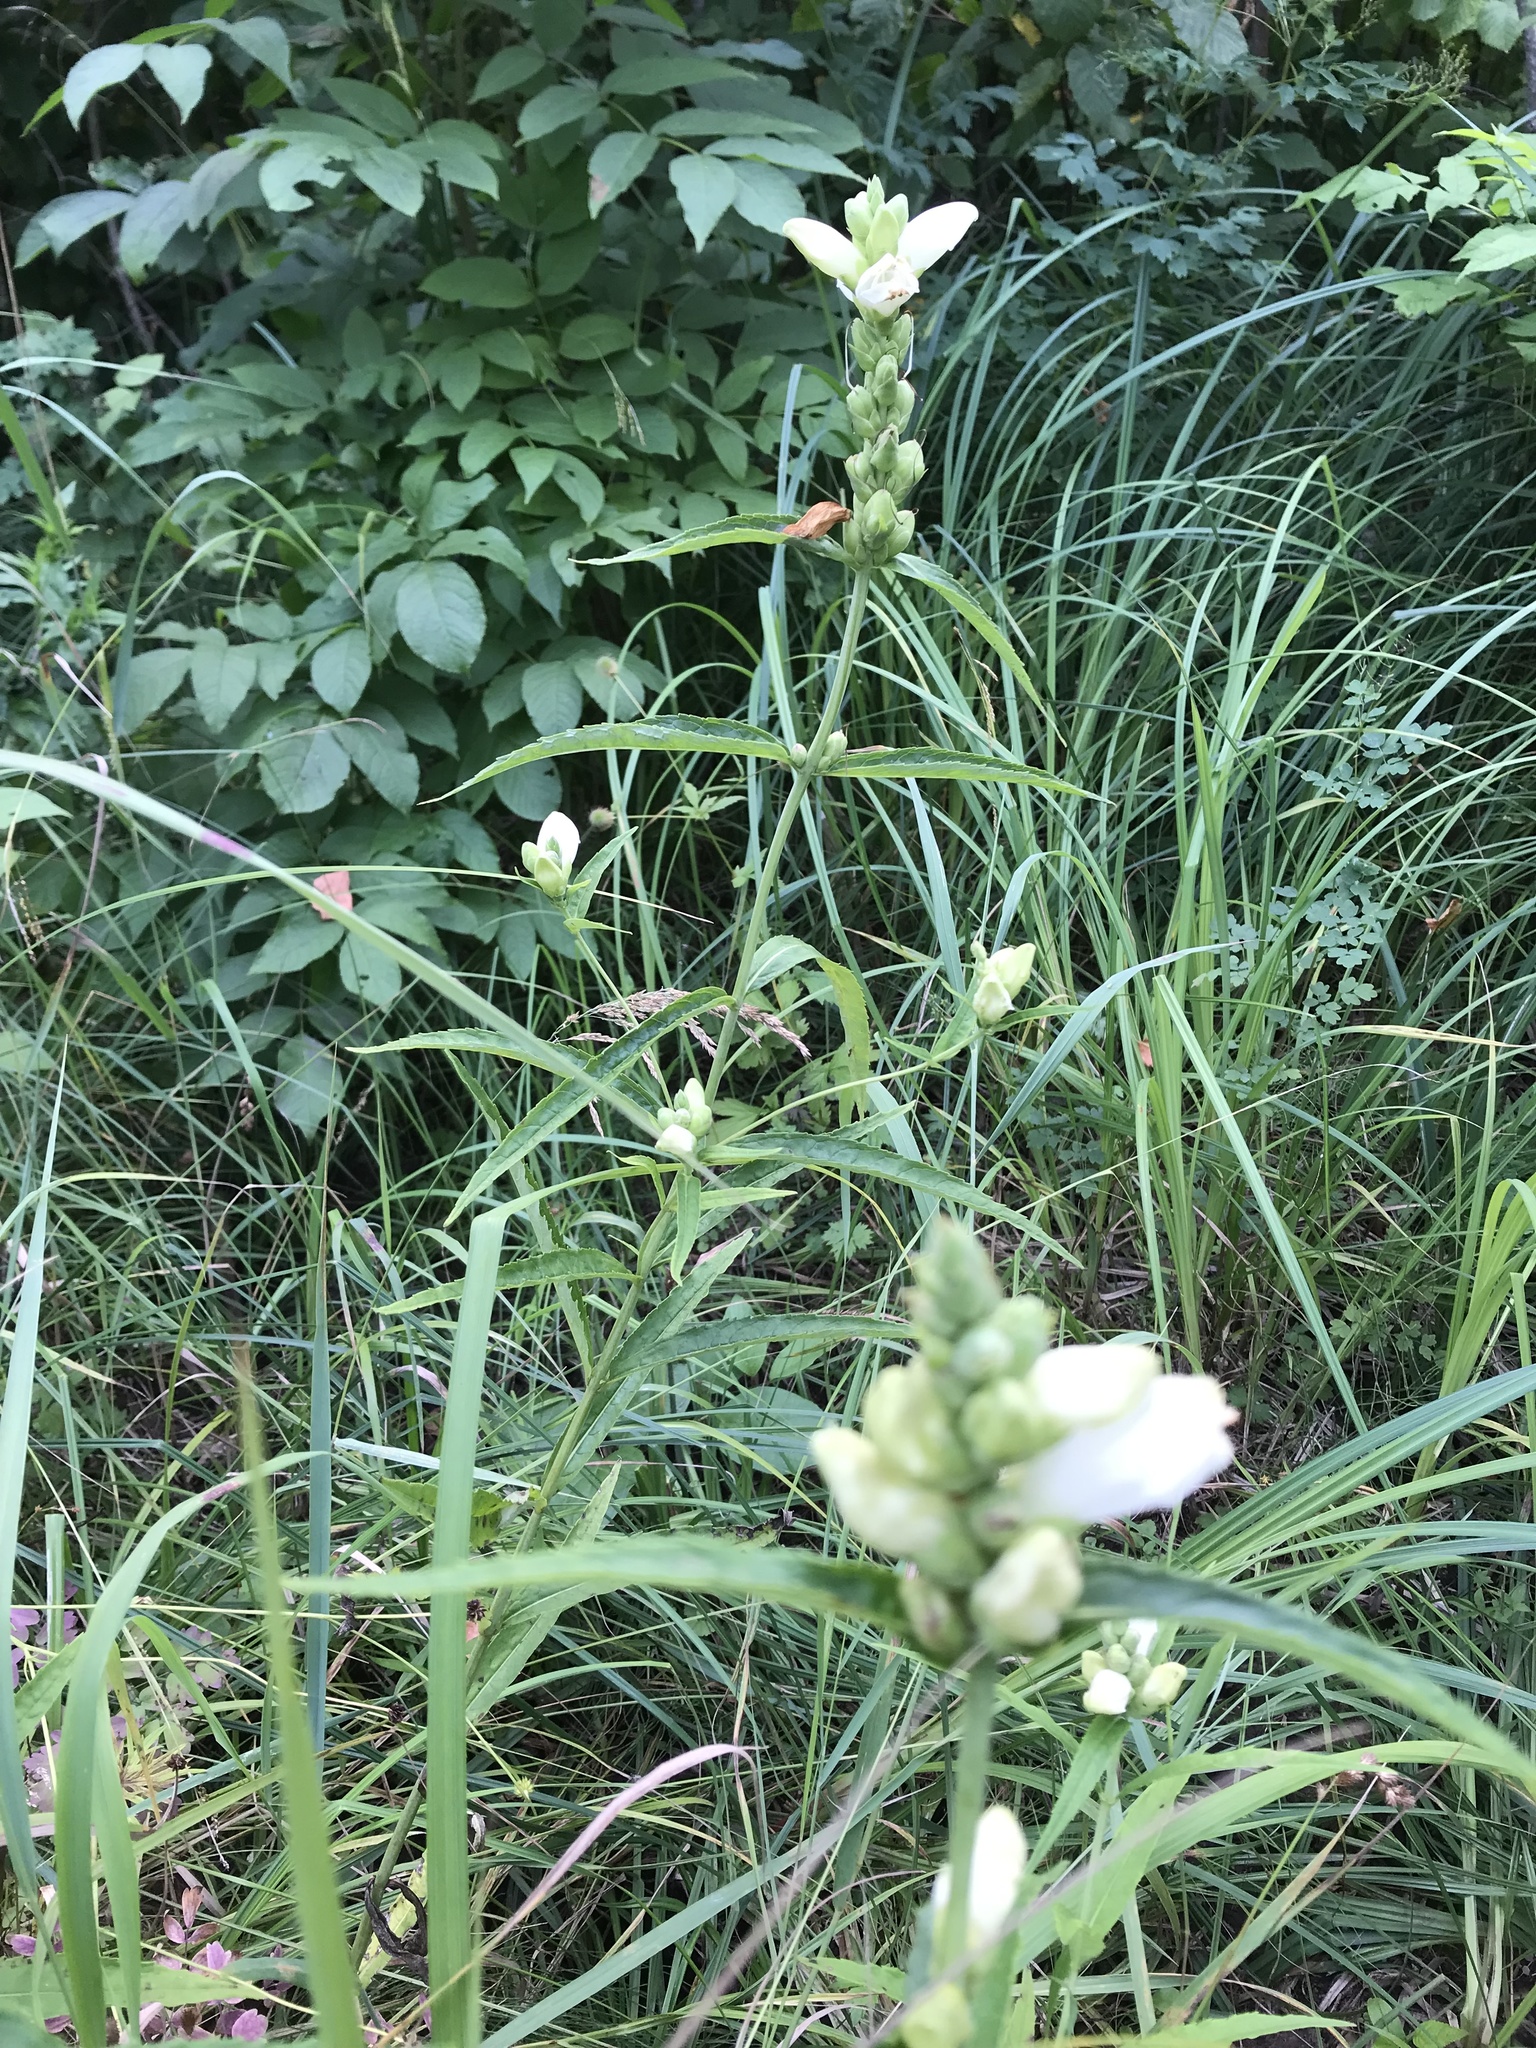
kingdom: Plantae
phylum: Tracheophyta
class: Magnoliopsida
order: Lamiales
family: Plantaginaceae
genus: Chelone
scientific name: Chelone glabra
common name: Snakehead
